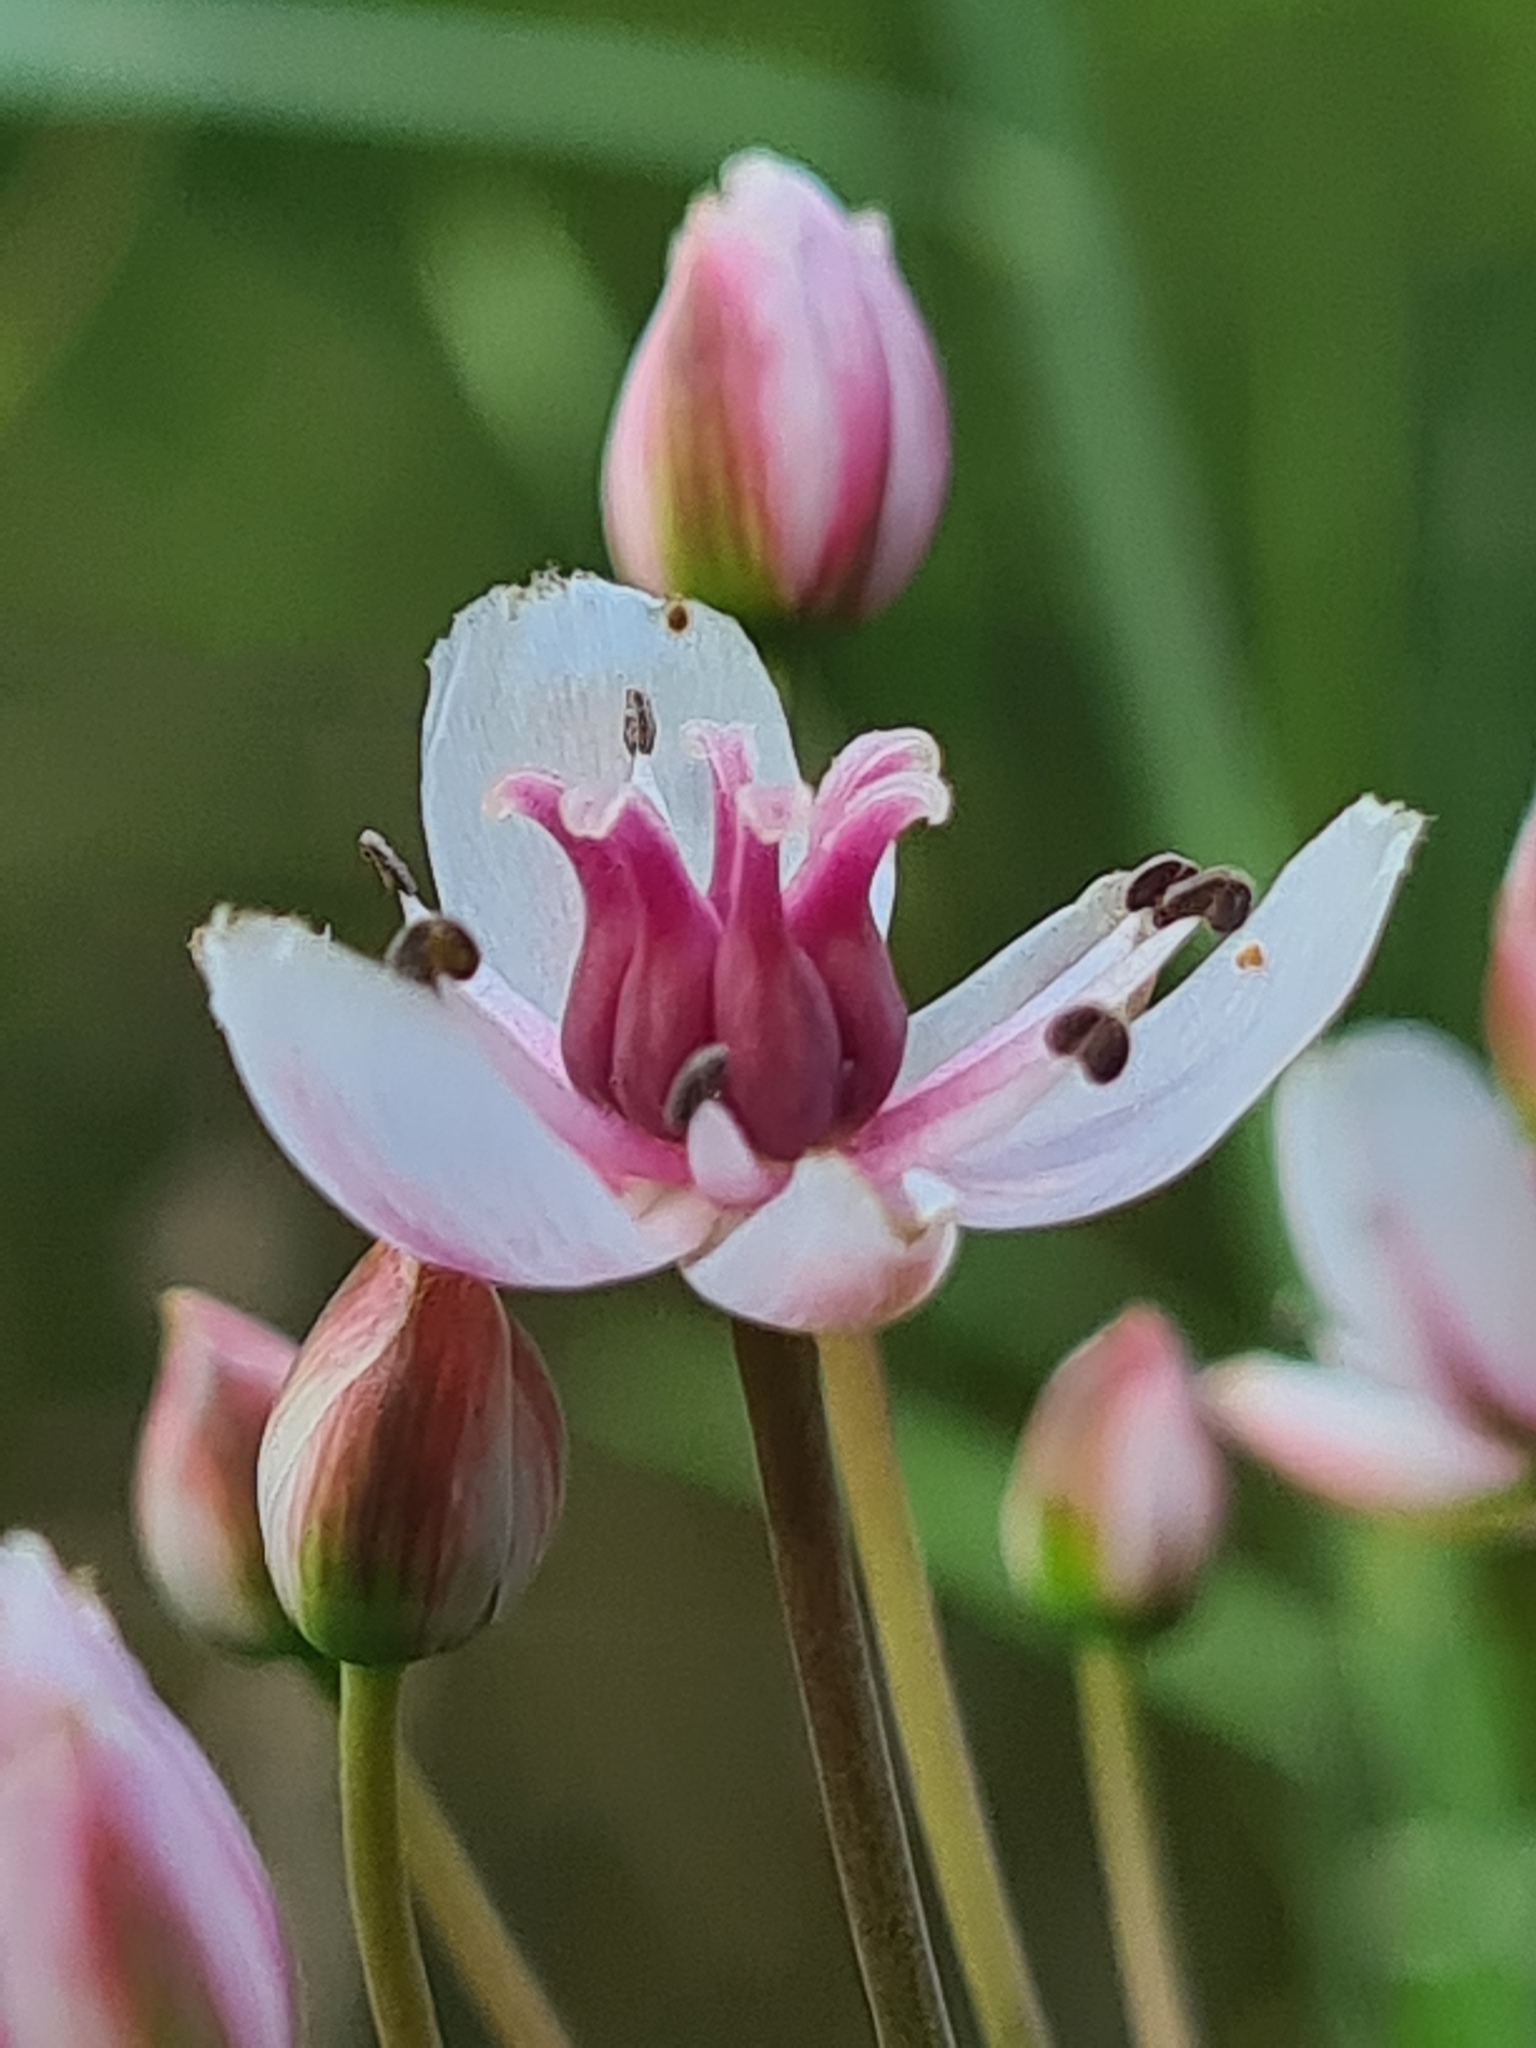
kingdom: Plantae
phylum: Tracheophyta
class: Liliopsida
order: Alismatales
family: Butomaceae
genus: Butomus
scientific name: Butomus umbellatus
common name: Flowering-rush
